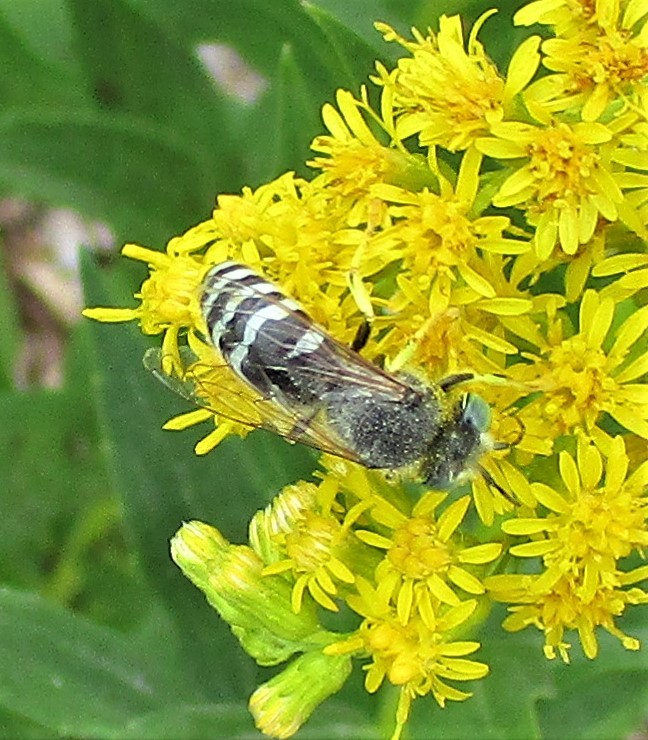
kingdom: Animalia
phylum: Arthropoda
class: Insecta
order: Hymenoptera
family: Crabronidae
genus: Bembix
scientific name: Bembix americana
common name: American sand wasp
